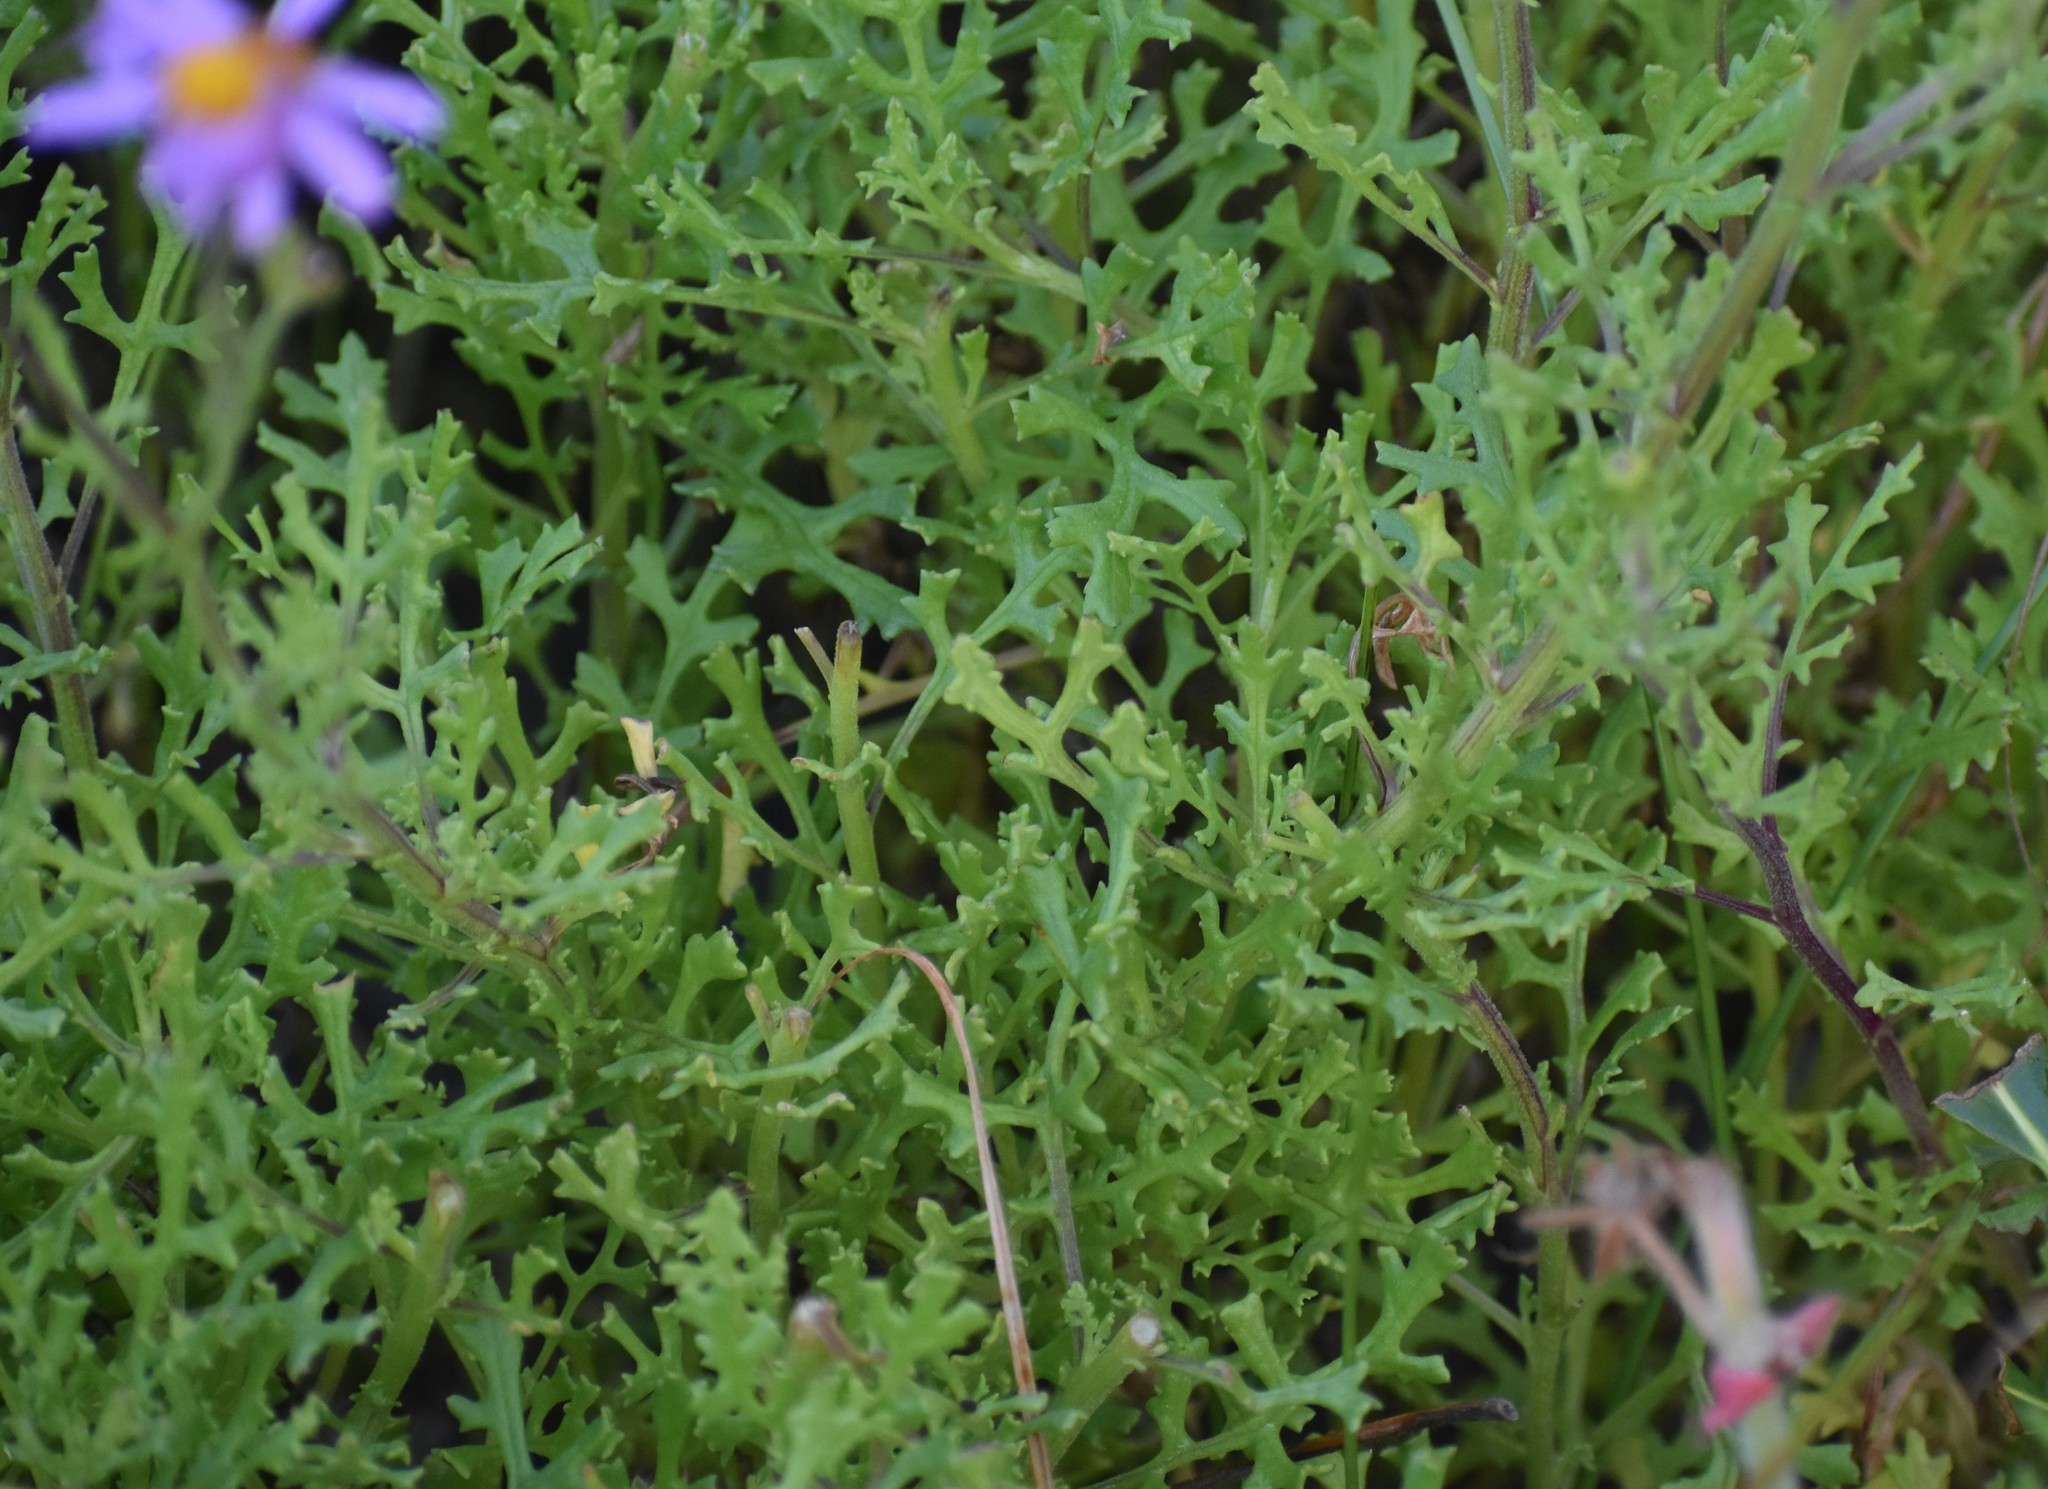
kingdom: Plantae
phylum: Tracheophyta
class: Magnoliopsida
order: Asterales
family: Asteraceae
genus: Senecio
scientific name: Senecio elegans
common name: Purple groundsel
